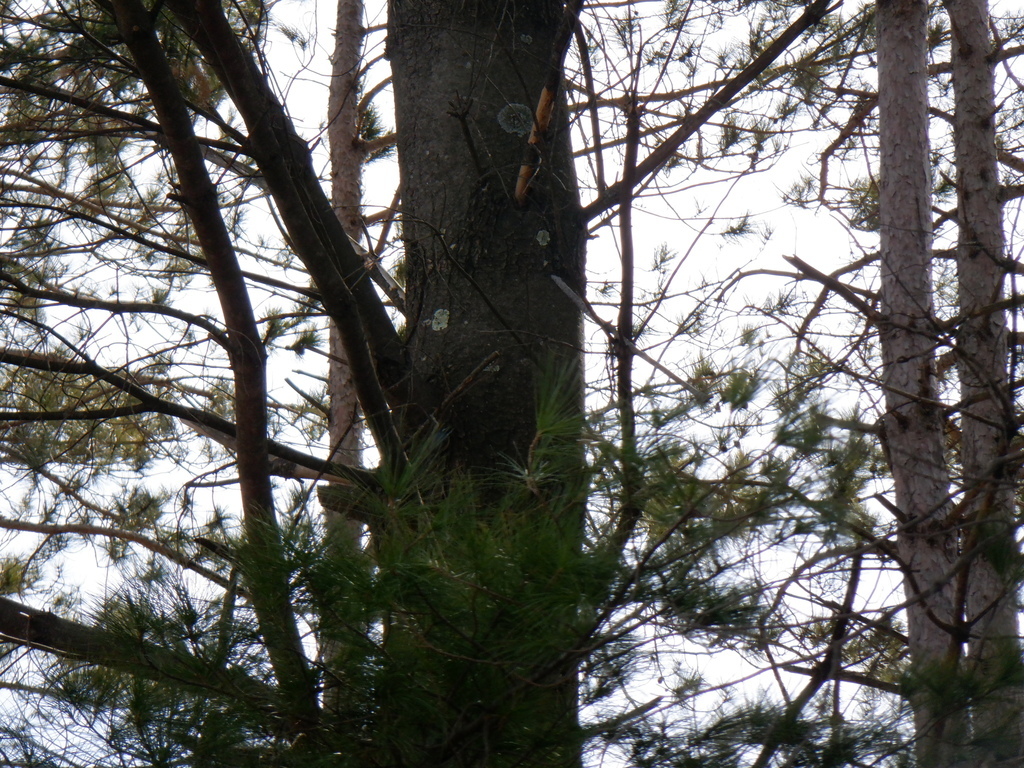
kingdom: Animalia
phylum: Chordata
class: Aves
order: Passeriformes
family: Sittidae
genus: Sitta
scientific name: Sitta canadensis
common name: Red-breasted nuthatch
